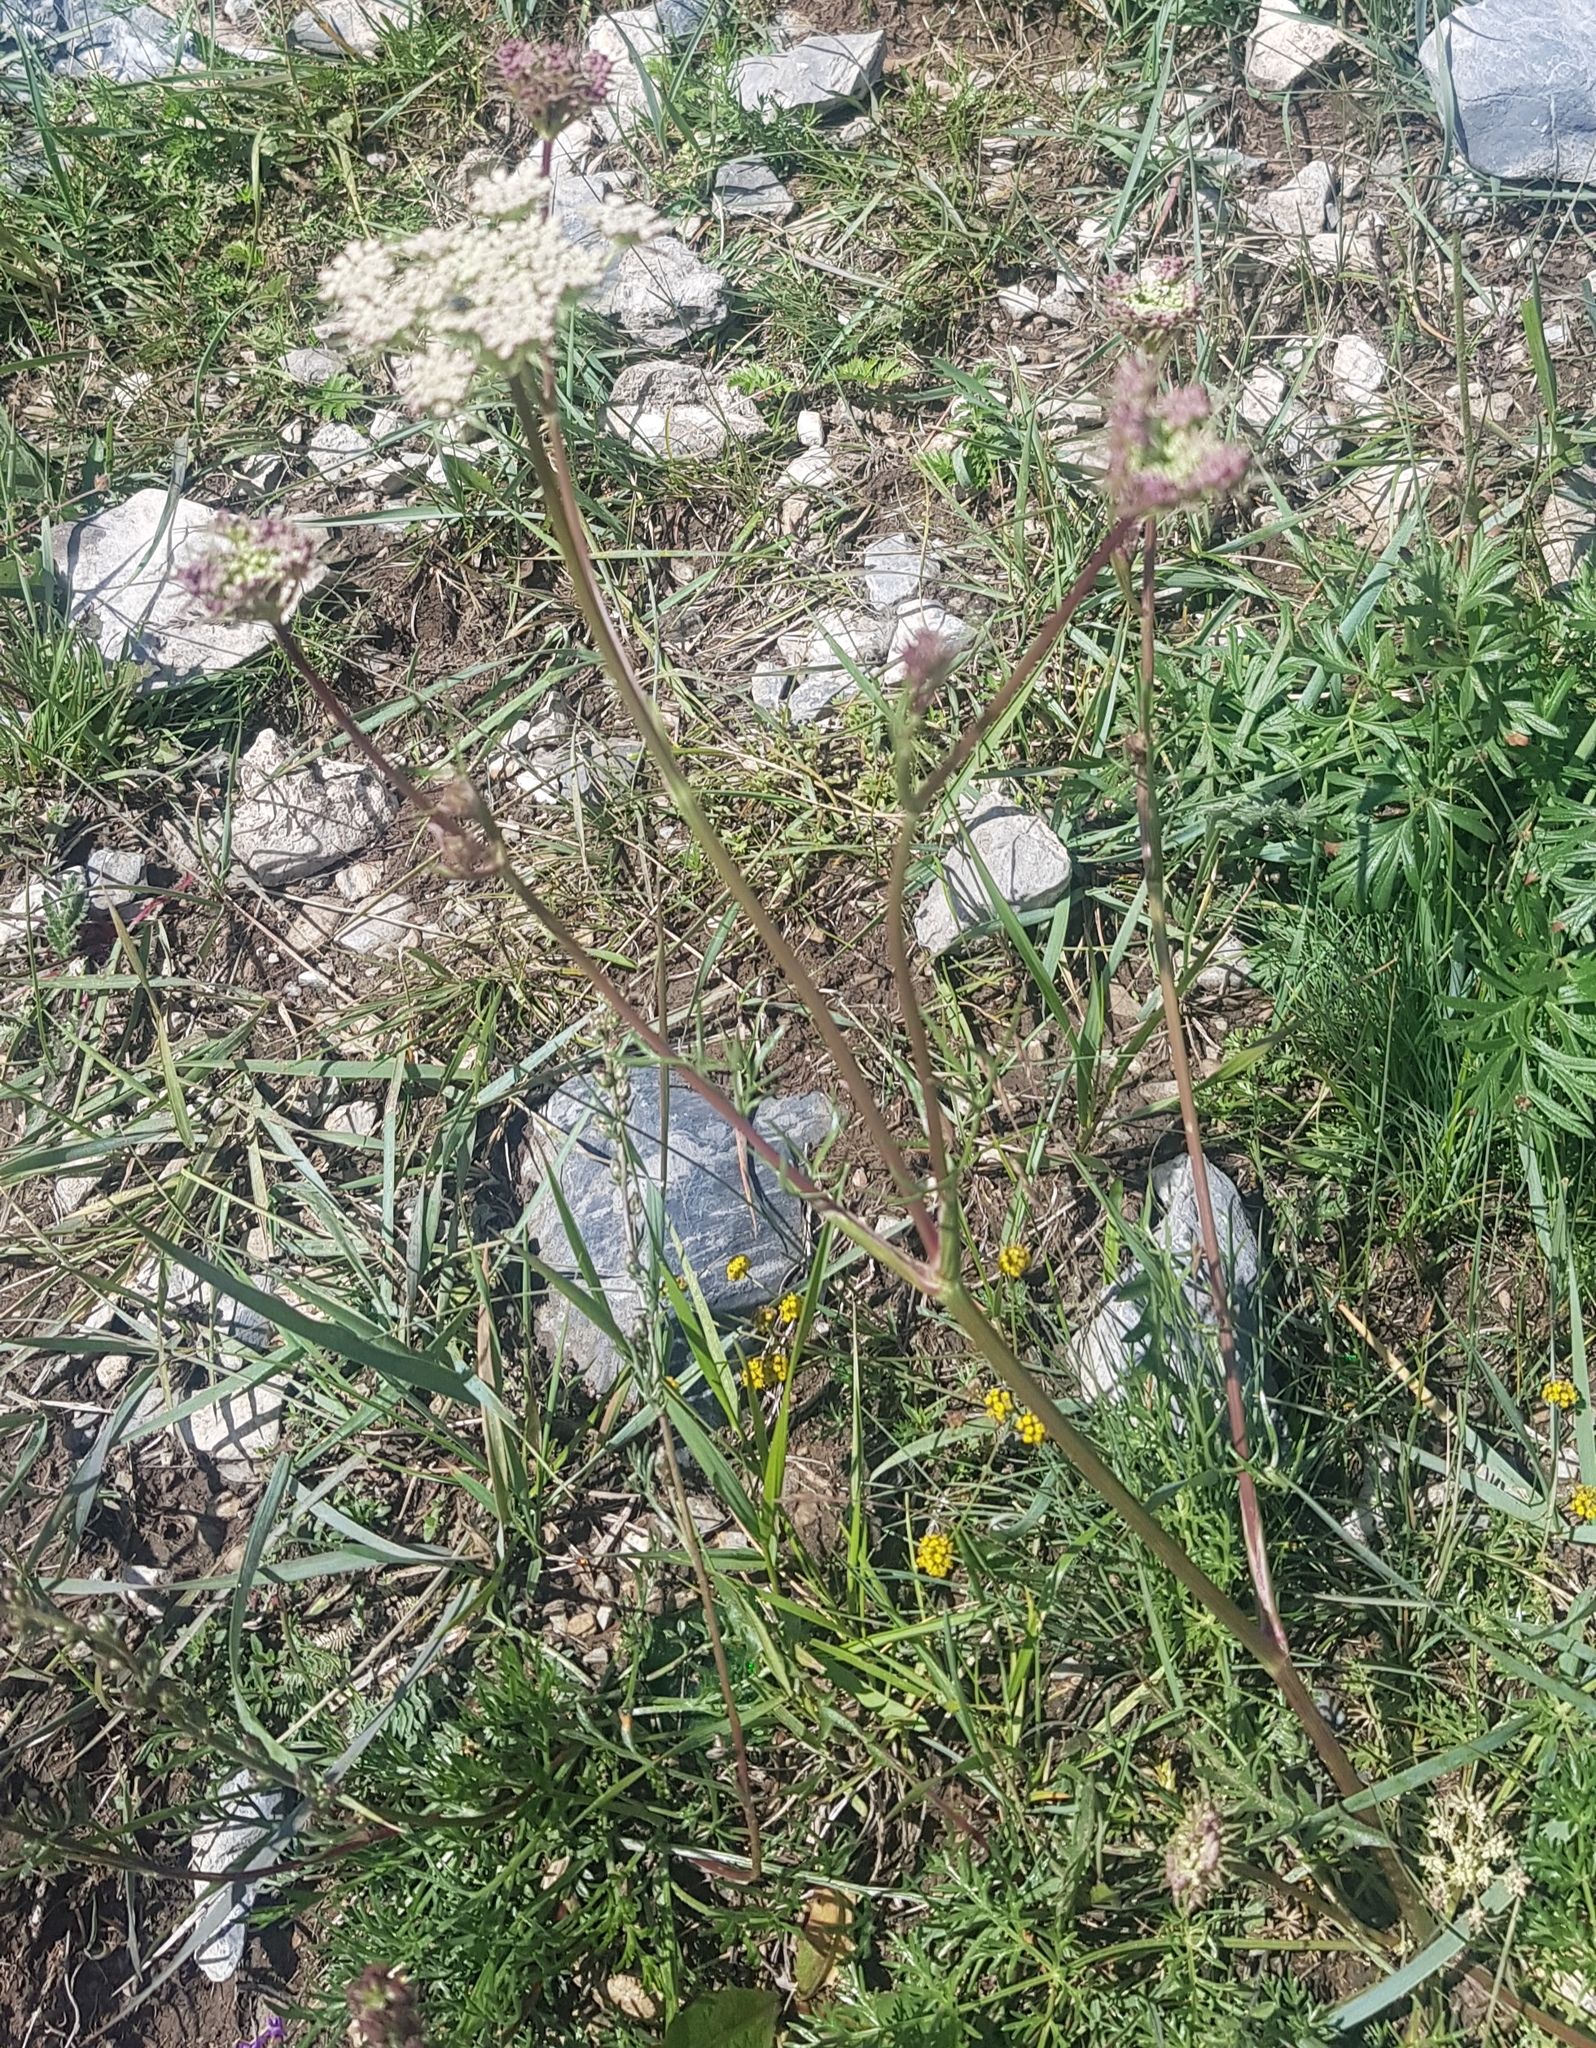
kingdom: Plantae
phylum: Tracheophyta
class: Magnoliopsida
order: Apiales
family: Apiaceae
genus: Kitagawia
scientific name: Kitagawia baicalensis
